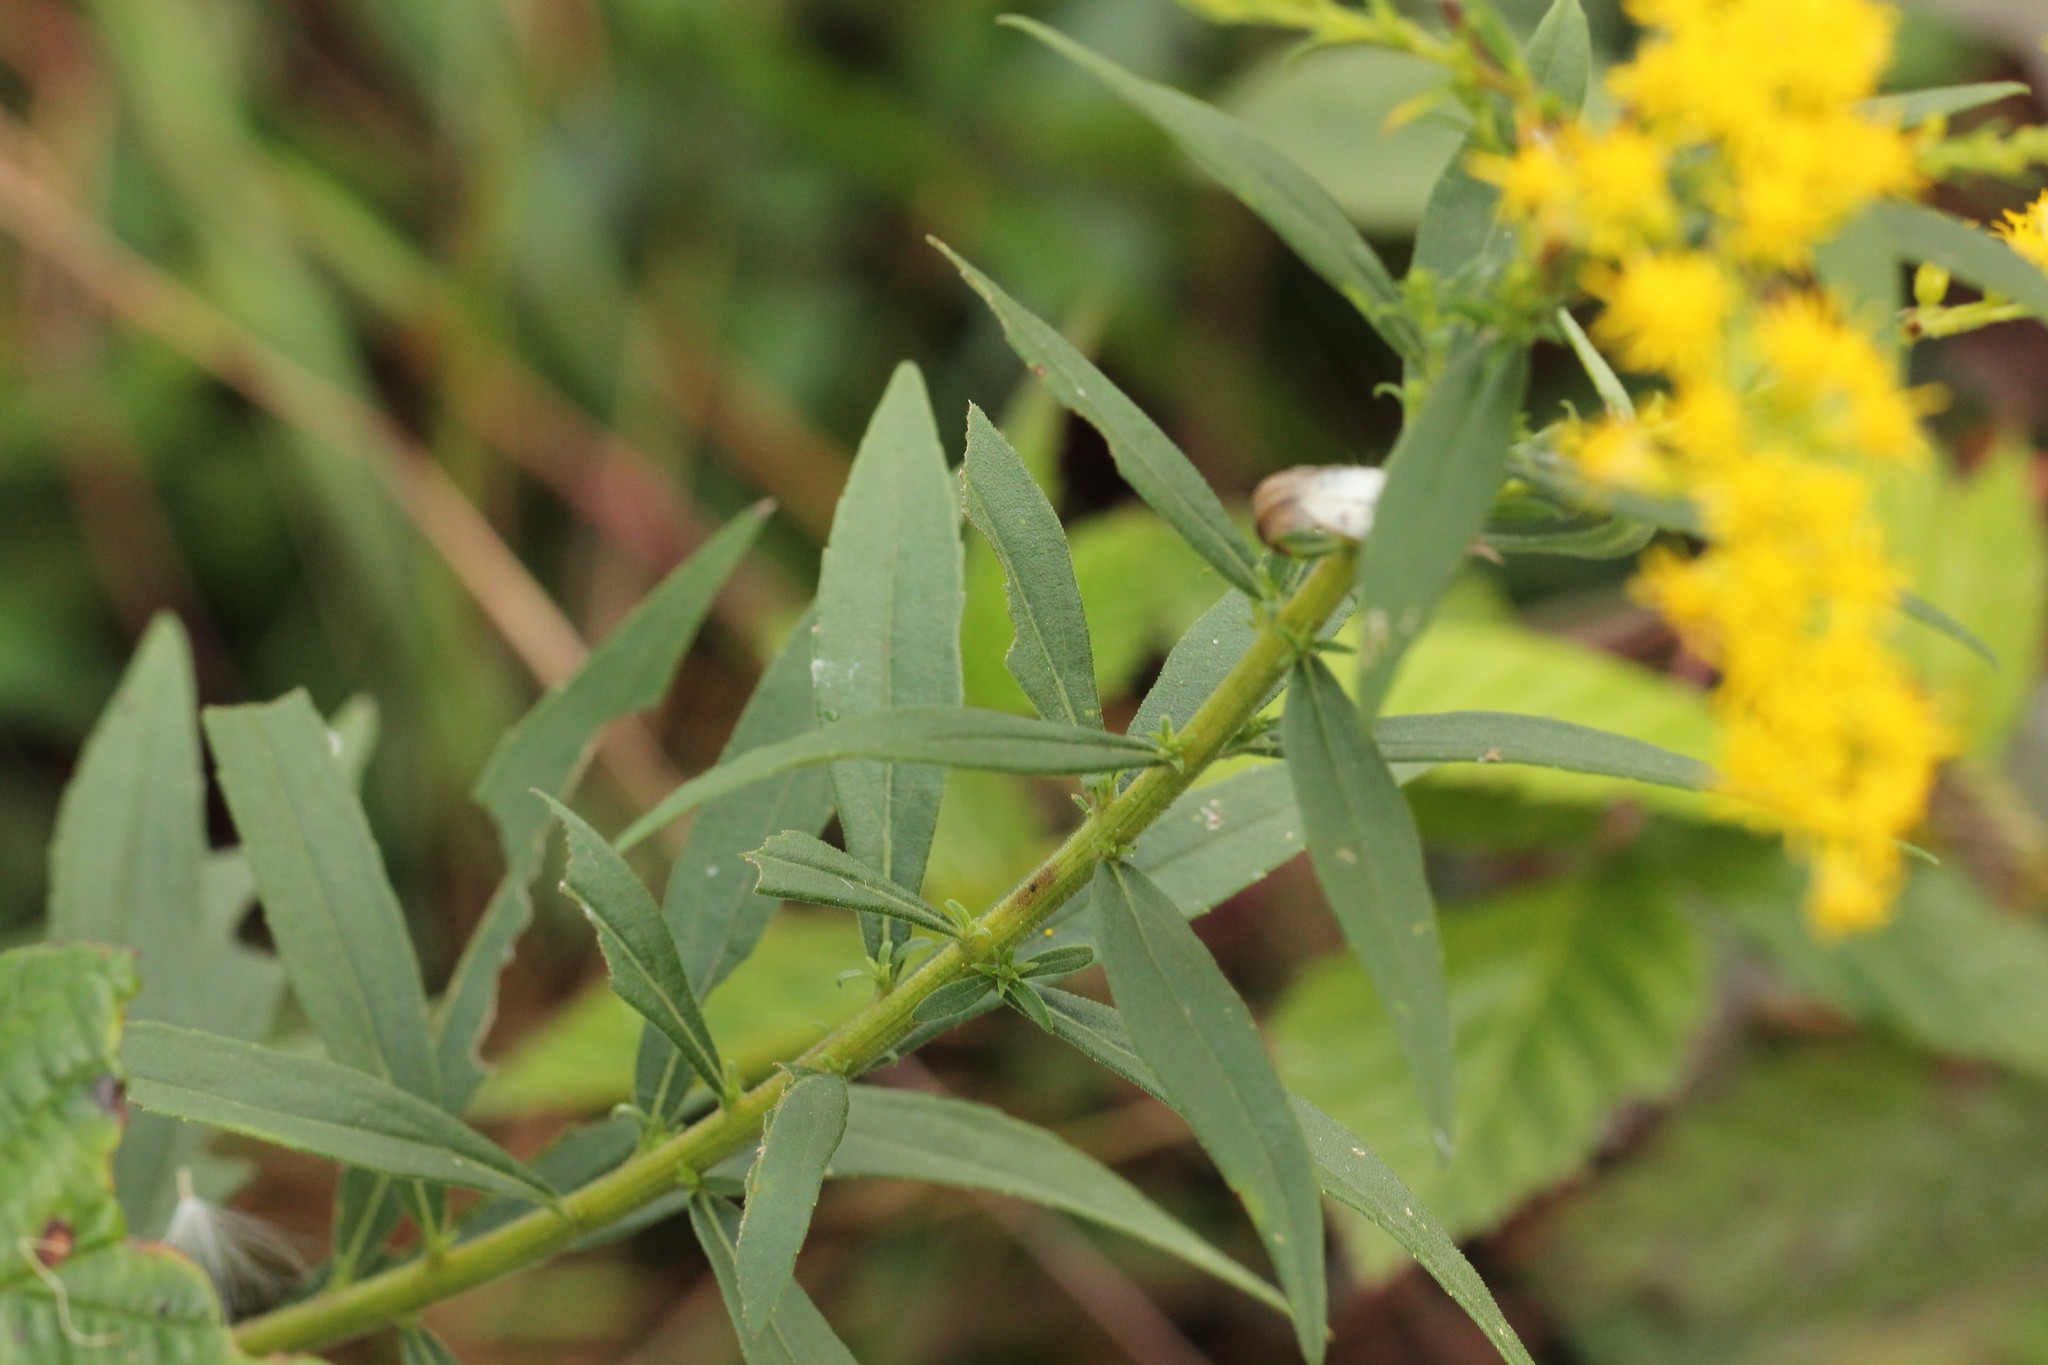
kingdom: Plantae
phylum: Tracheophyta
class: Magnoliopsida
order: Asterales
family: Asteraceae
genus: Solidago
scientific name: Solidago altissima
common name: Late goldenrod
